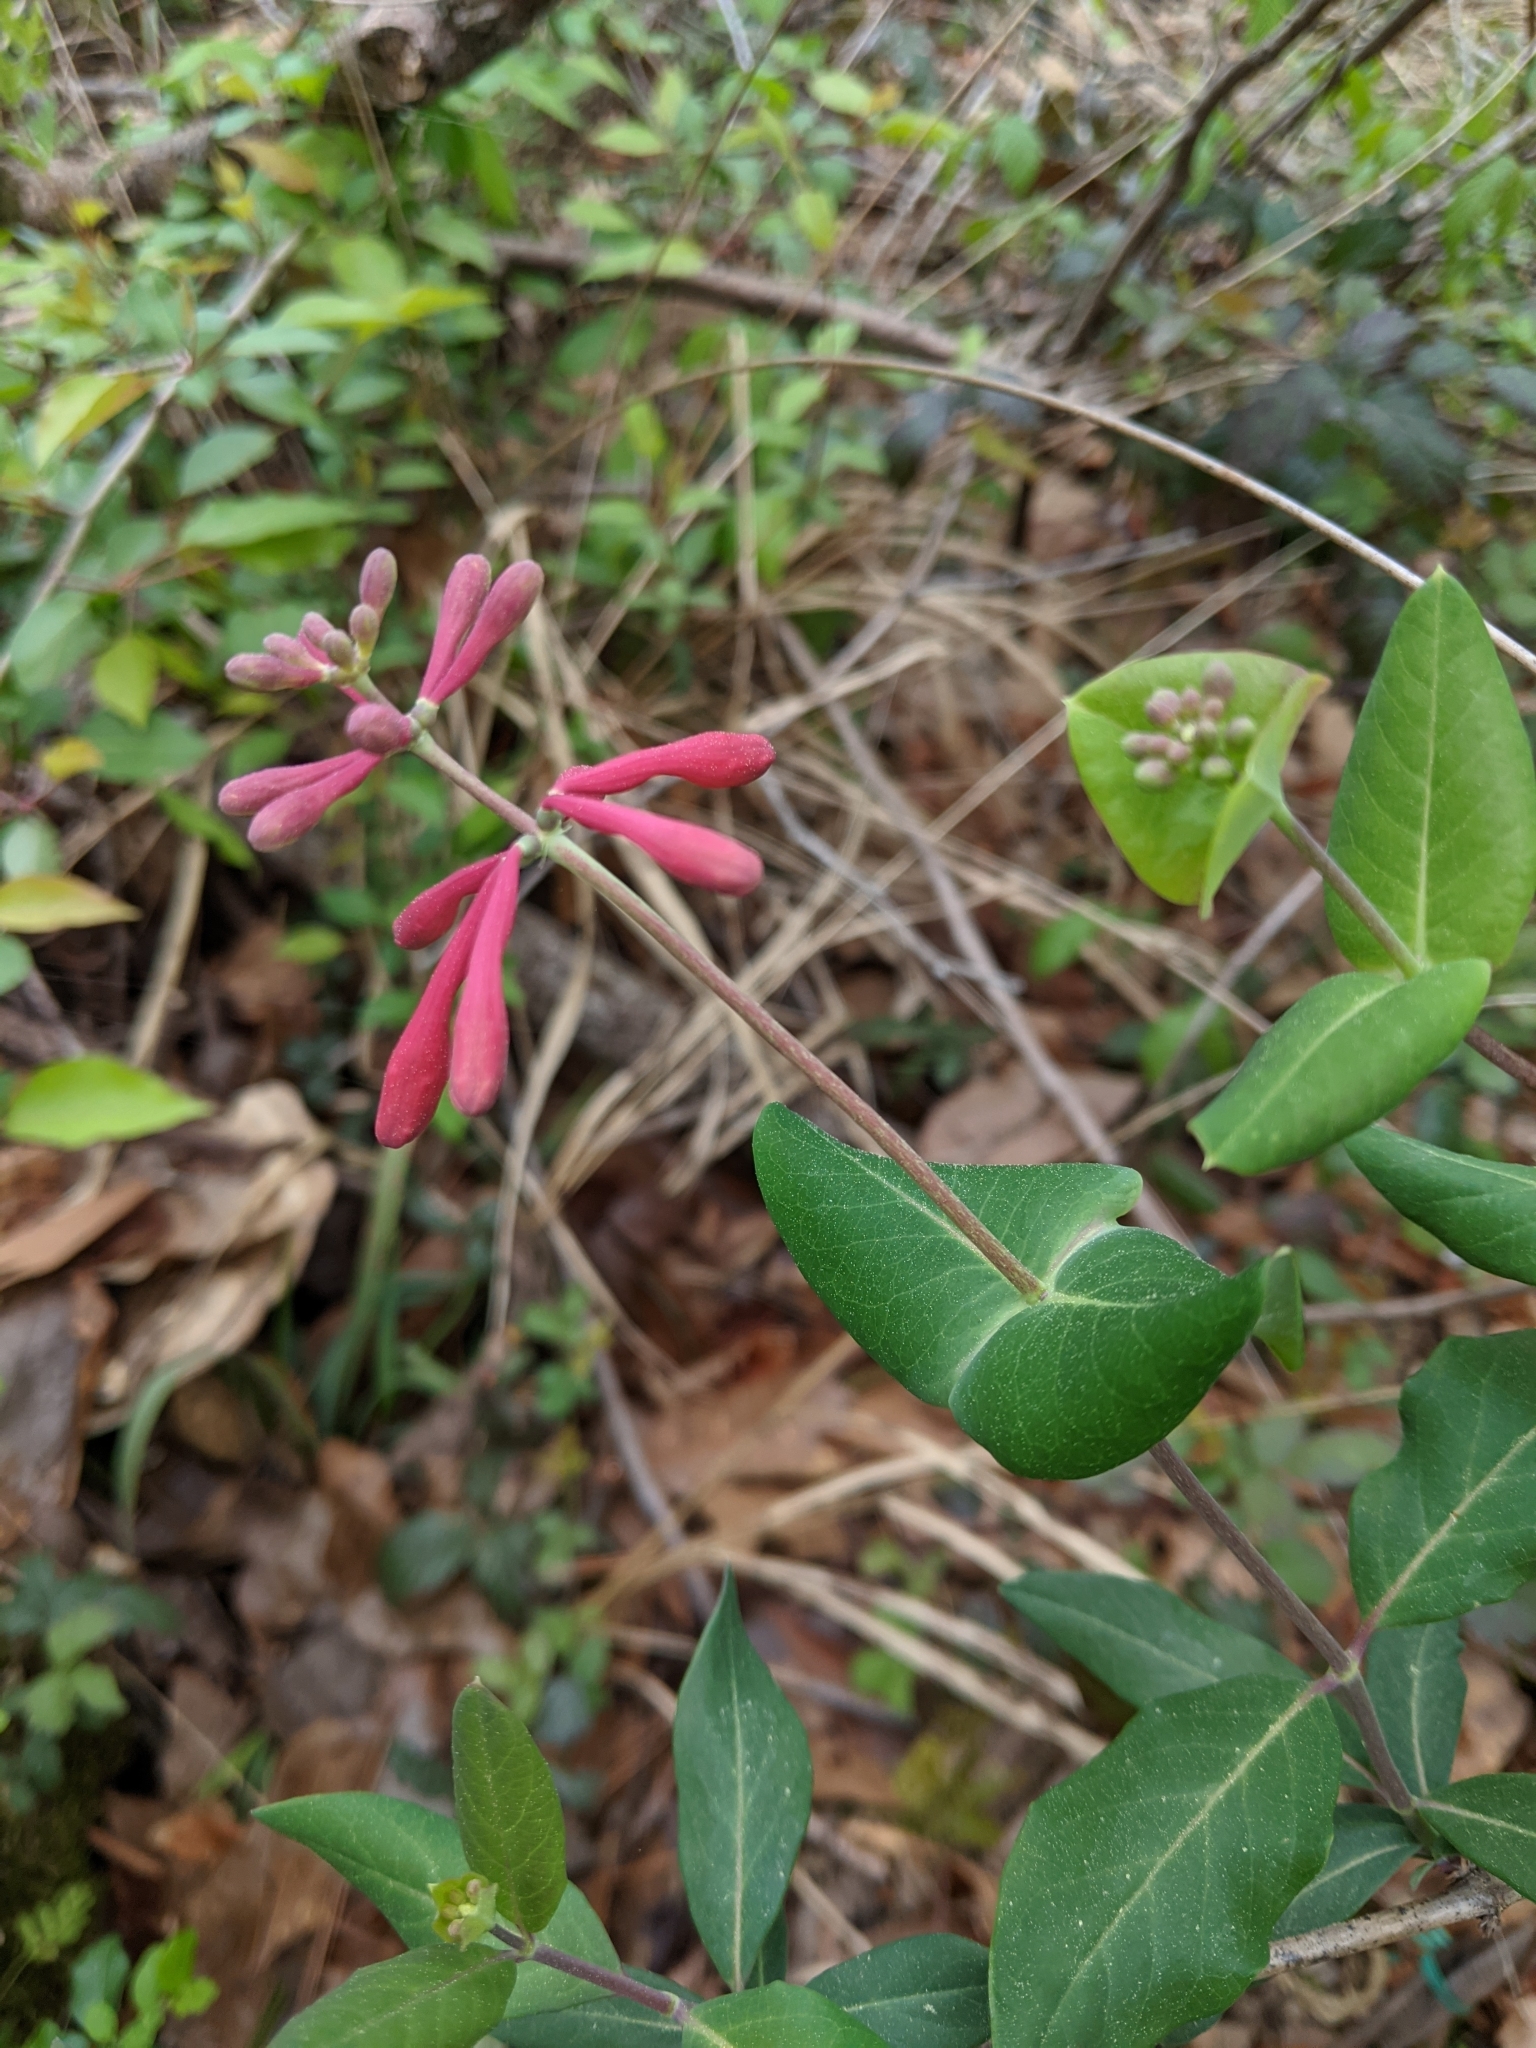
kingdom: Plantae
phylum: Tracheophyta
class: Magnoliopsida
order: Dipsacales
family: Caprifoliaceae
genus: Lonicera
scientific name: Lonicera sempervirens
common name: Coral honeysuckle
